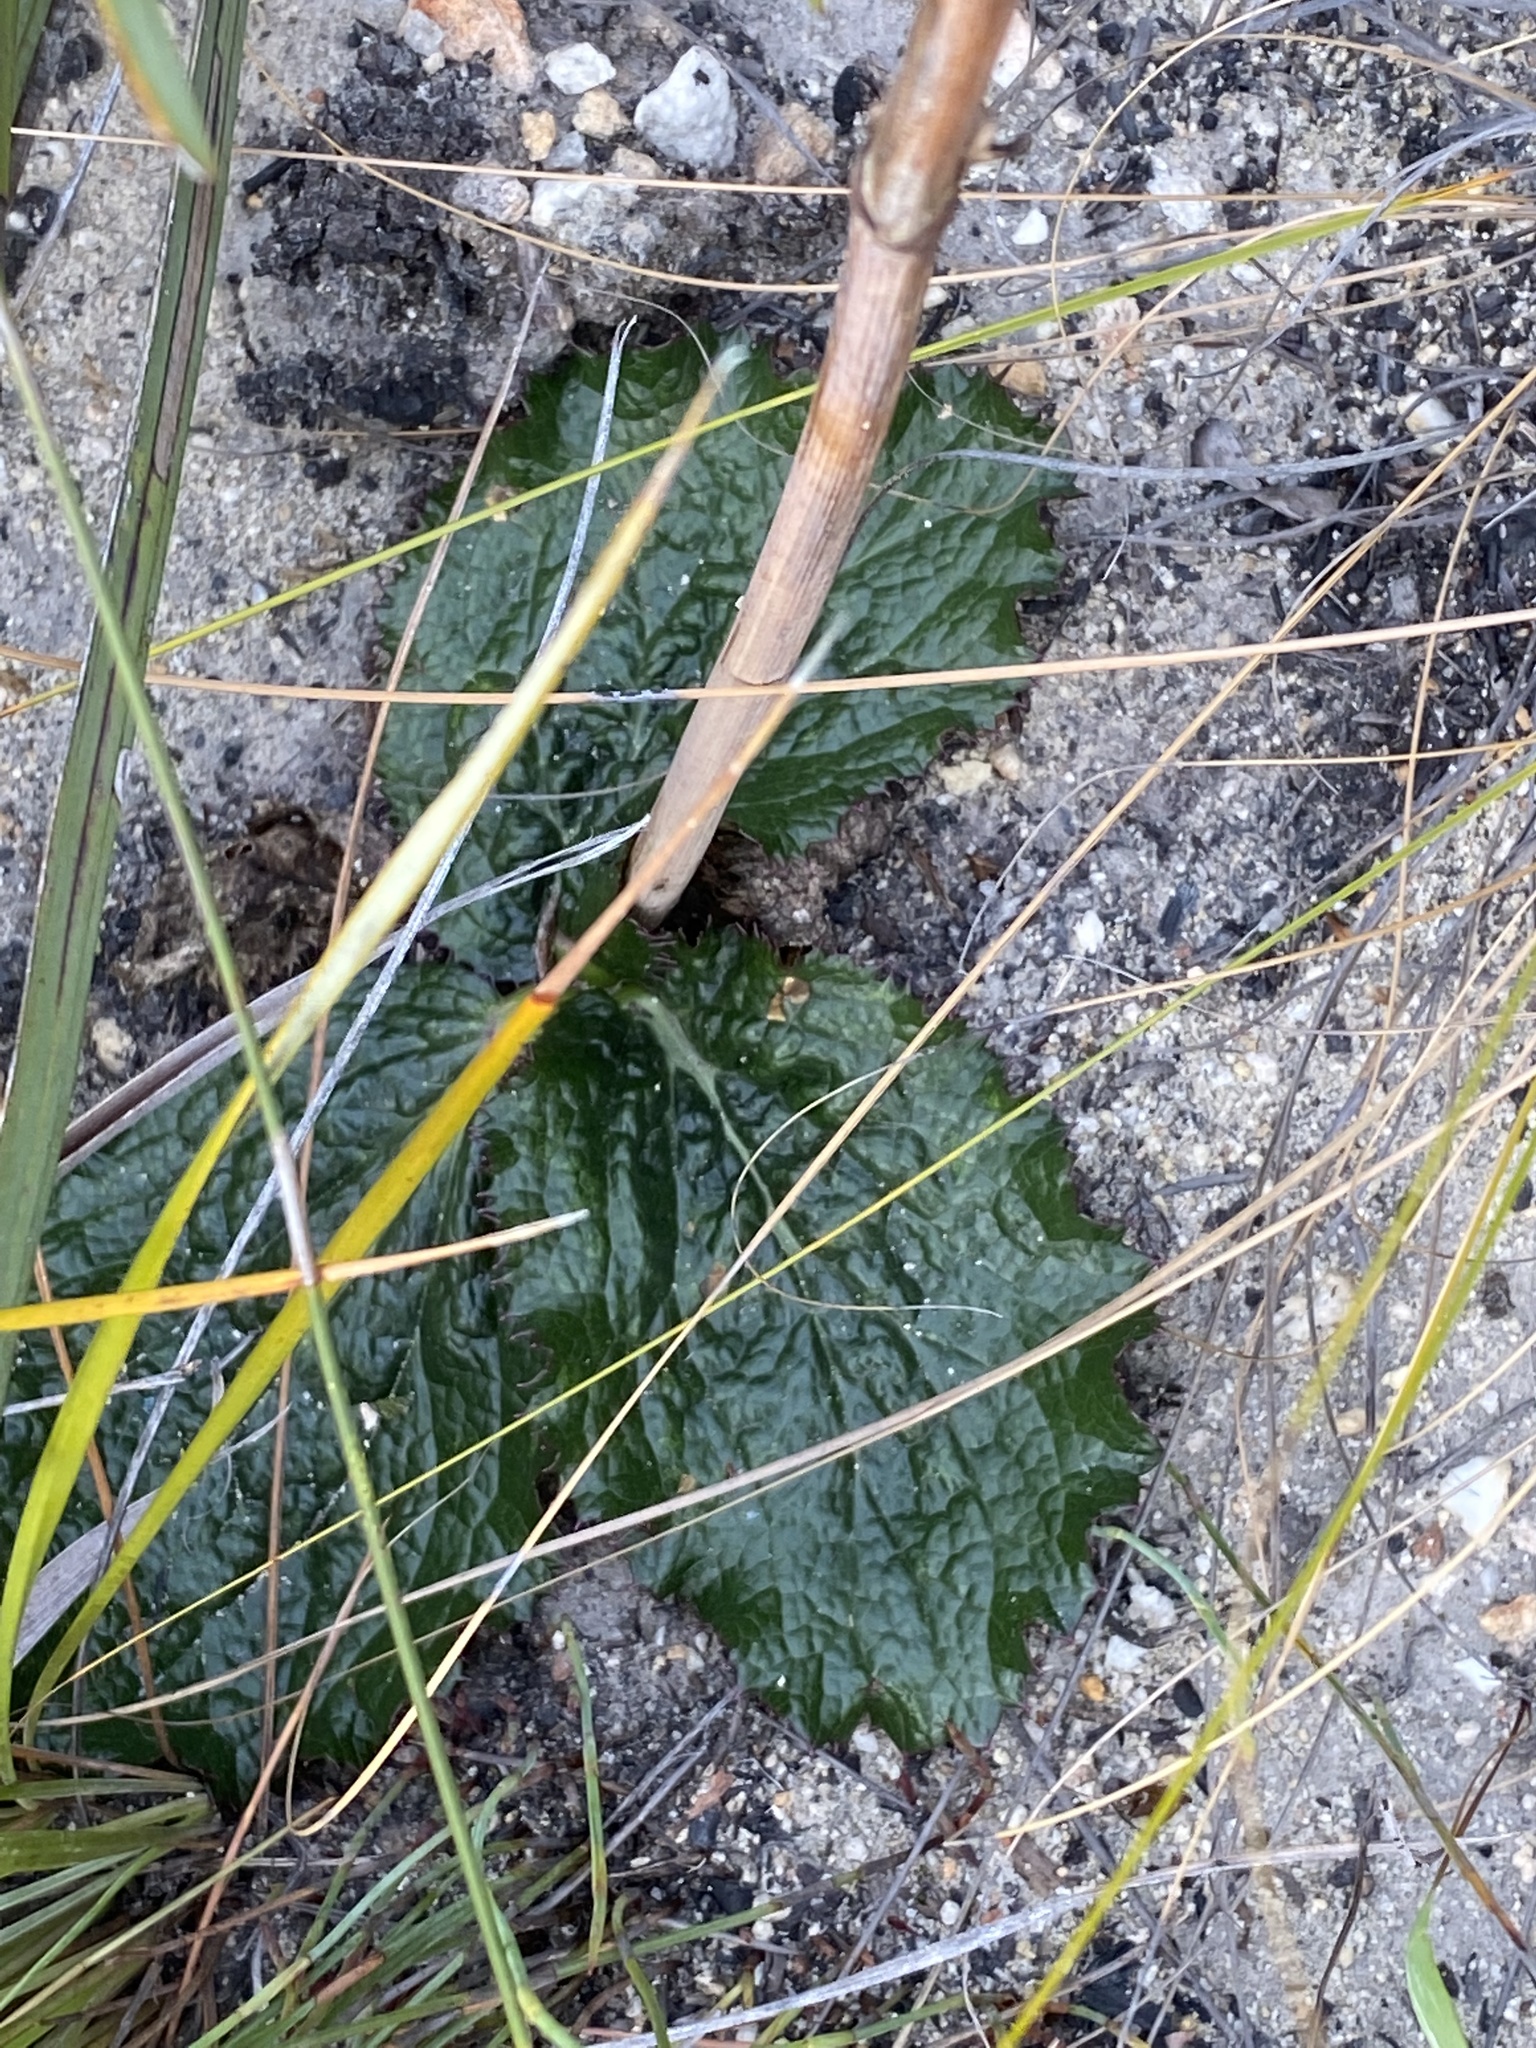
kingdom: Plantae
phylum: Tracheophyta
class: Magnoliopsida
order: Apiales
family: Apiaceae
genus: Lichtensteinia
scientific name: Lichtensteinia latifolia
